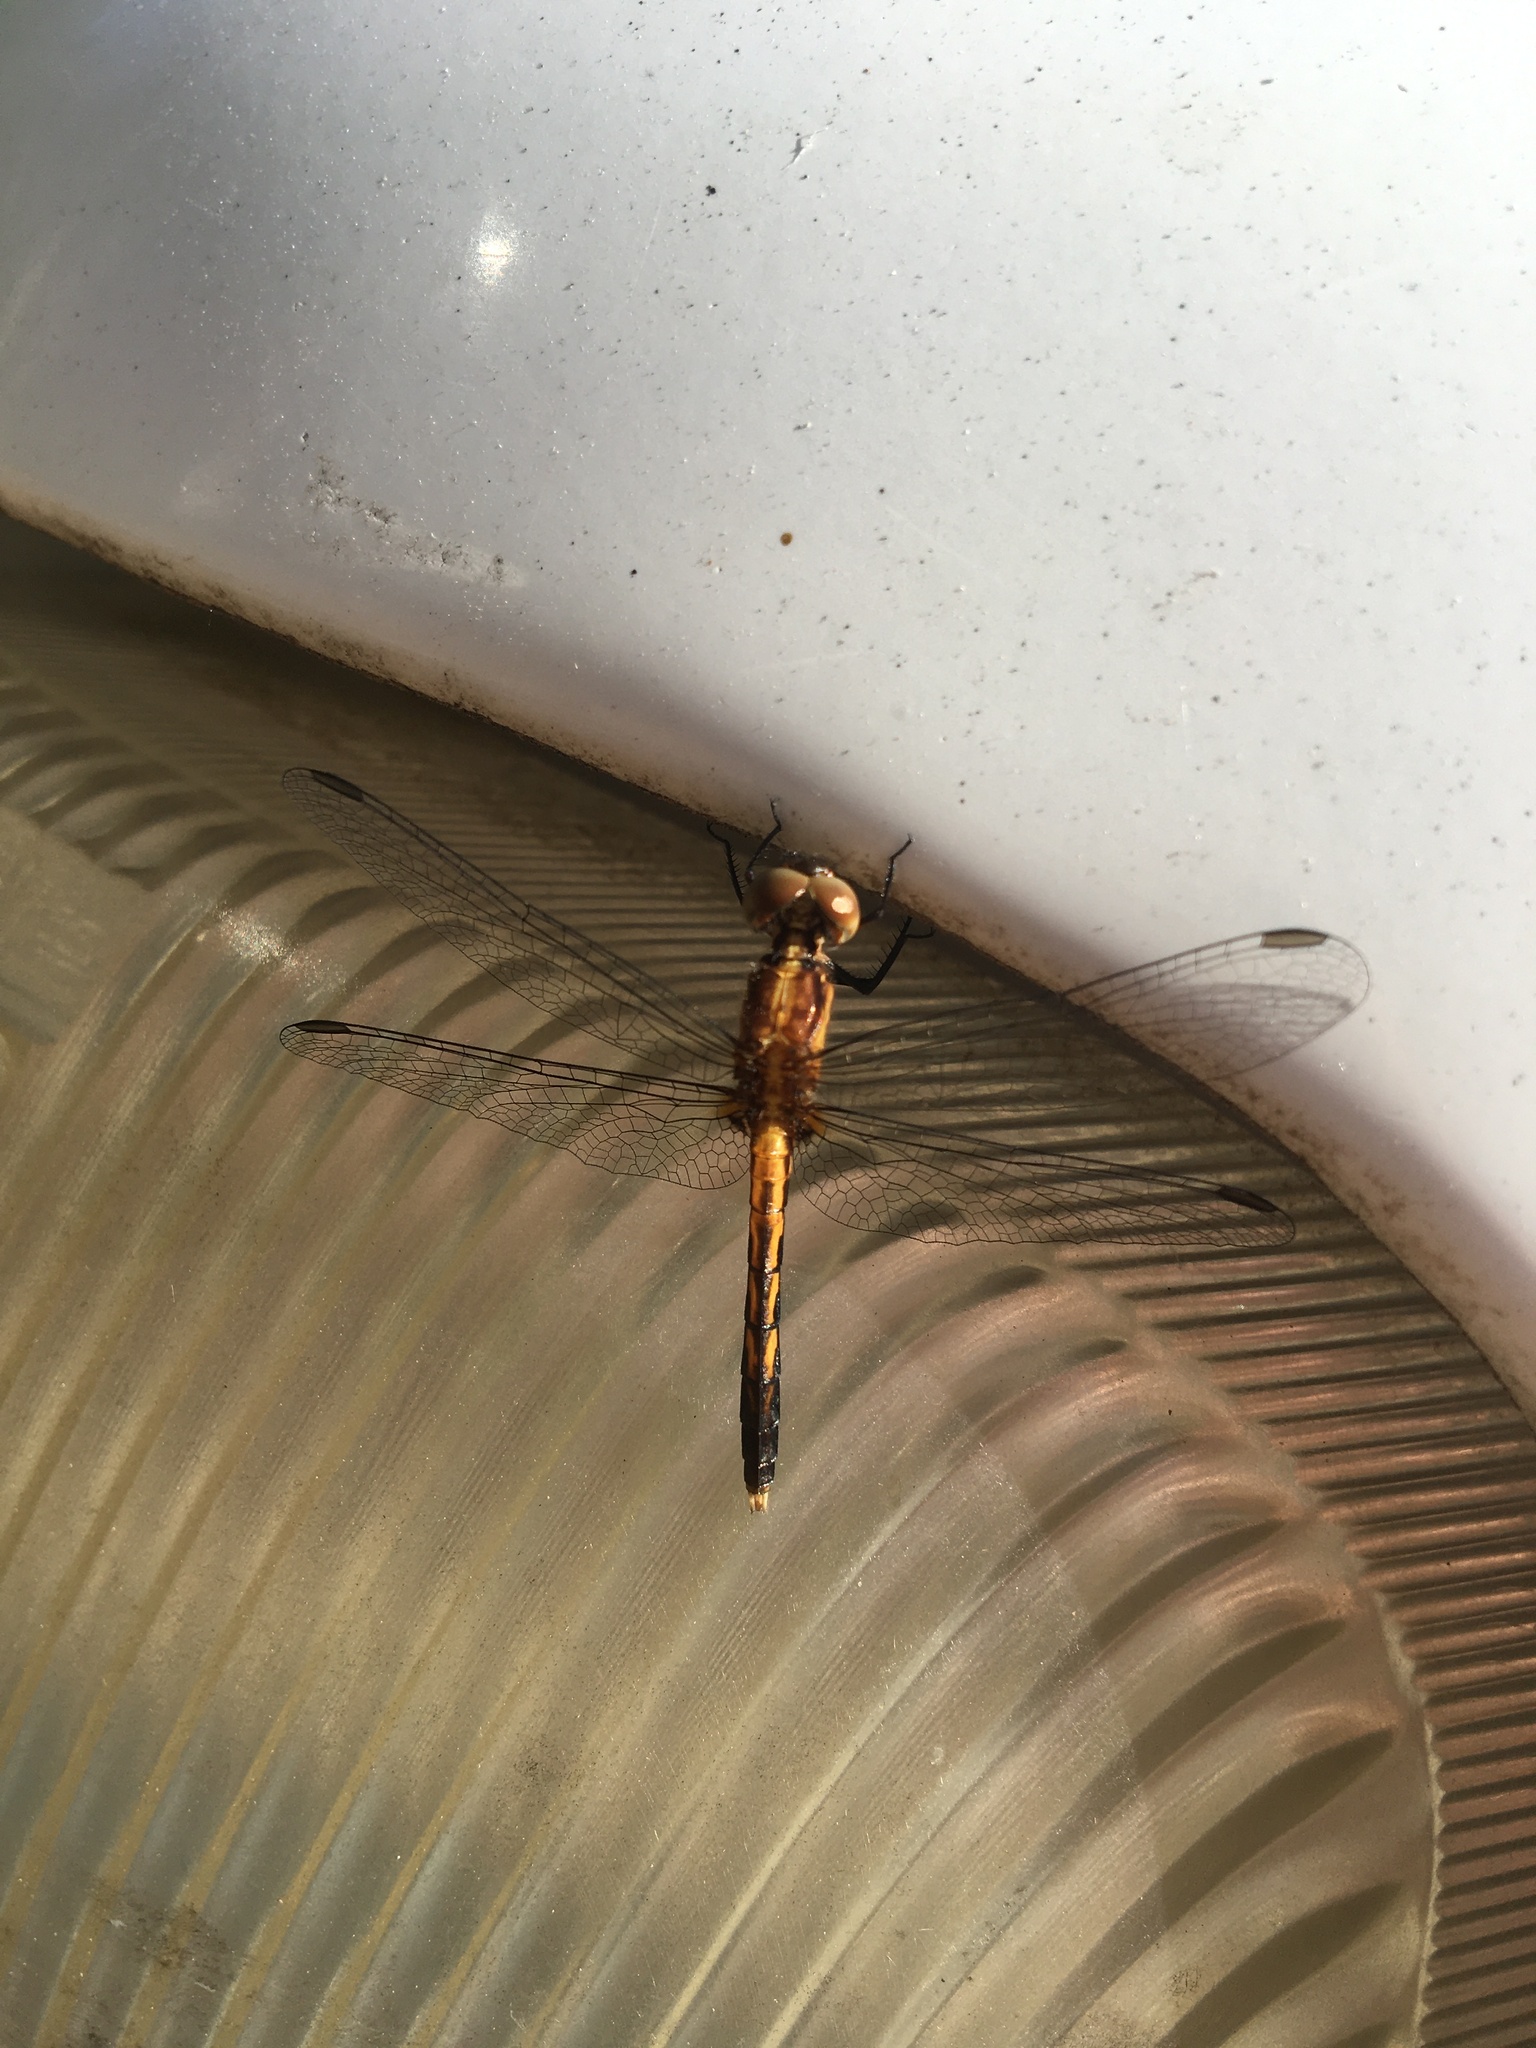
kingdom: Animalia
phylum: Arthropoda
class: Insecta
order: Odonata
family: Libellulidae
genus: Erythrodiplax
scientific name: Erythrodiplax minuscula
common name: Little blue dragonlet
